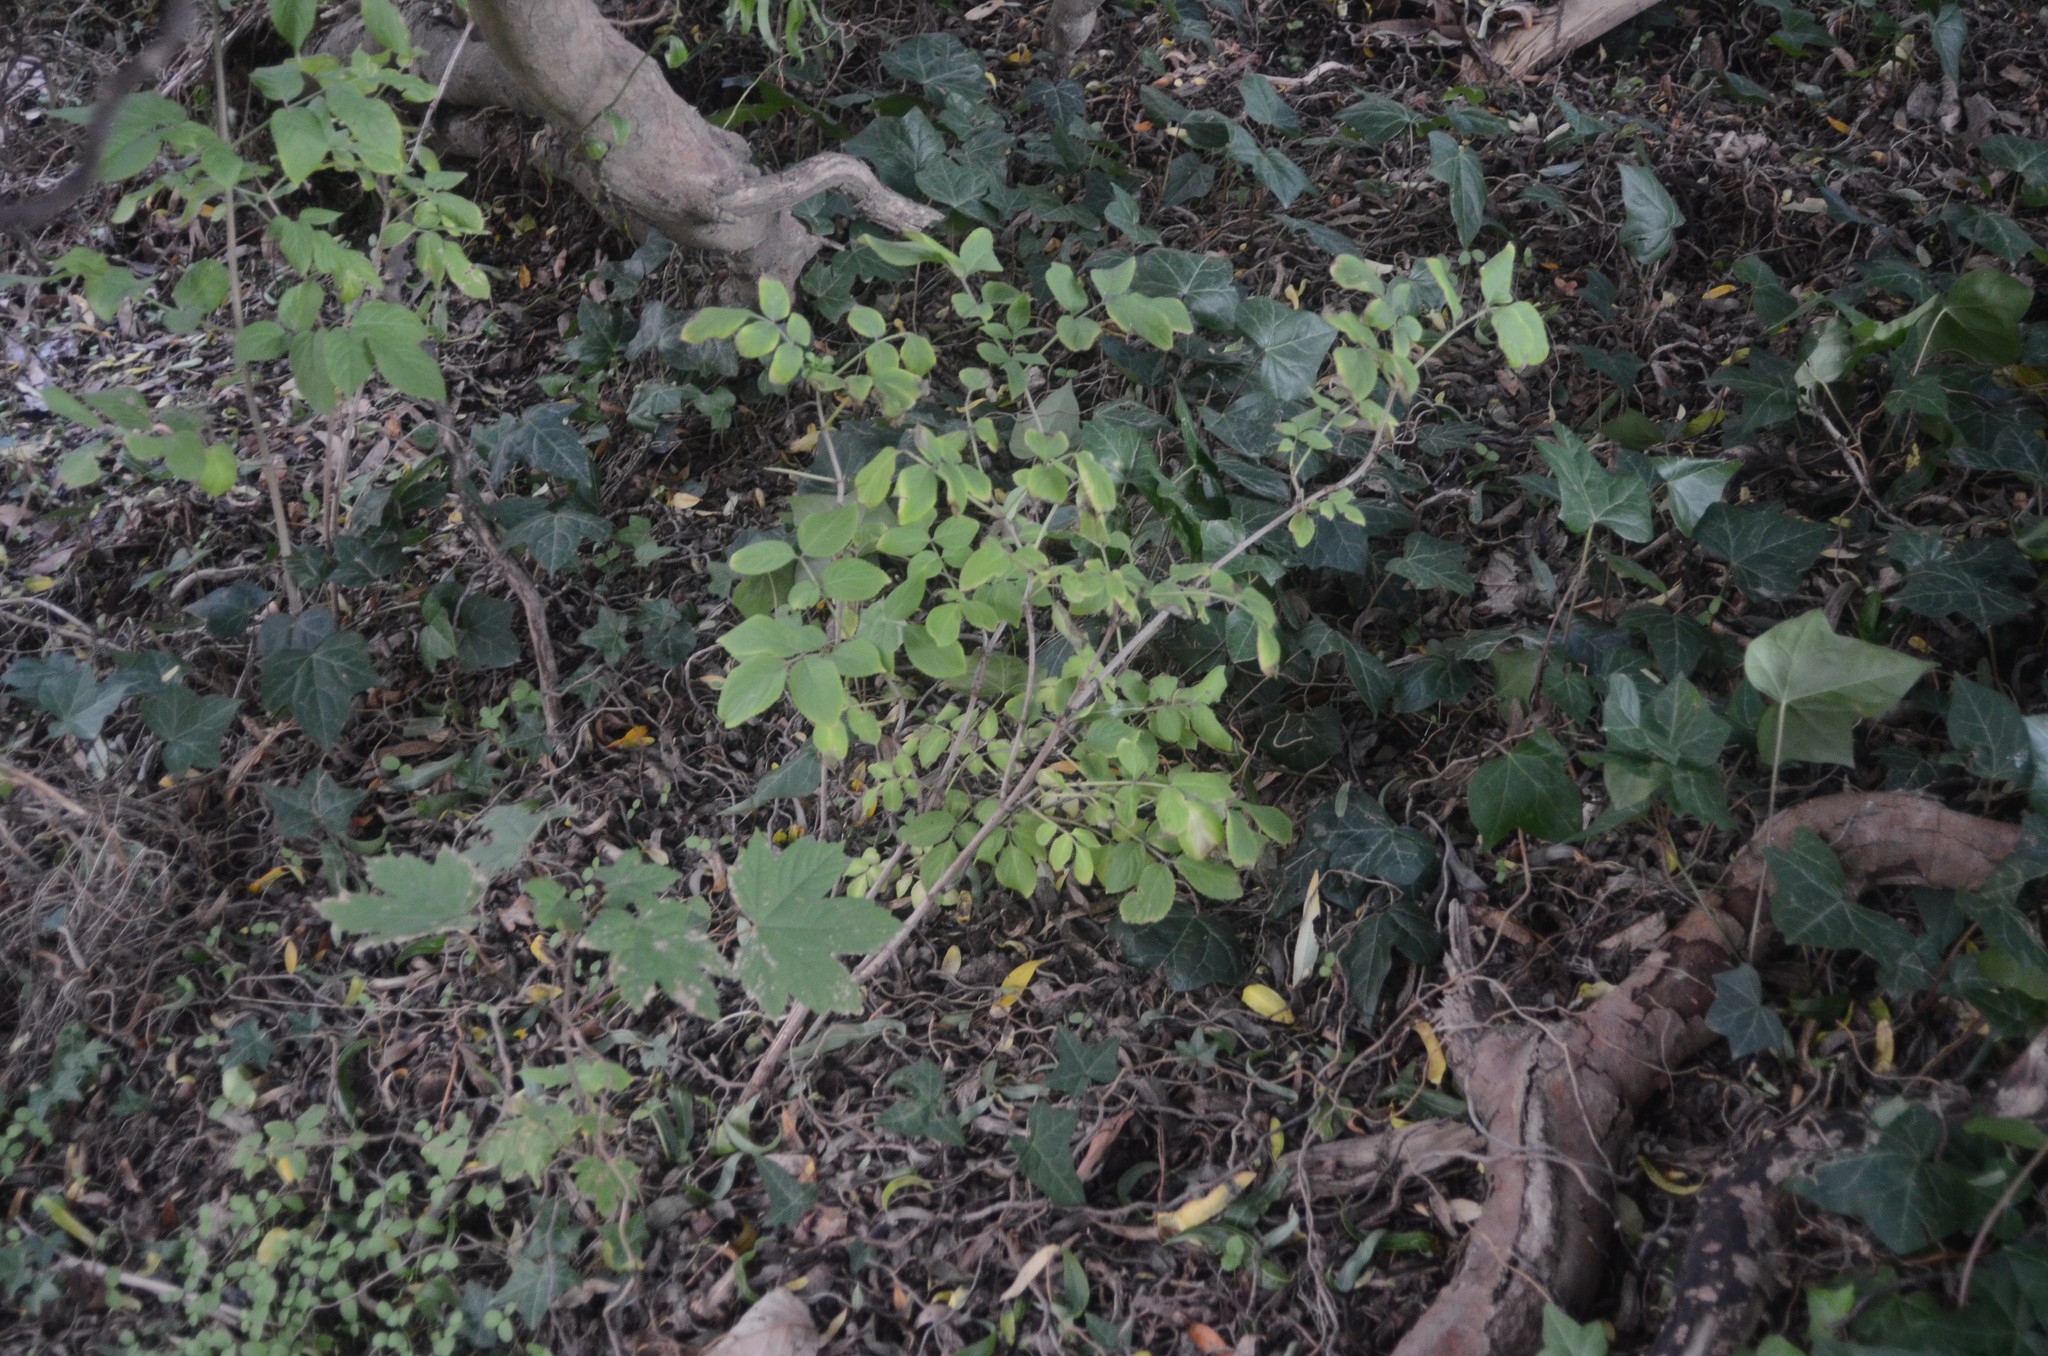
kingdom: Plantae
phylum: Tracheophyta
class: Magnoliopsida
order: Sapindales
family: Sapindaceae
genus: Acer
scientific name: Acer pseudoplatanus
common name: Sycamore
